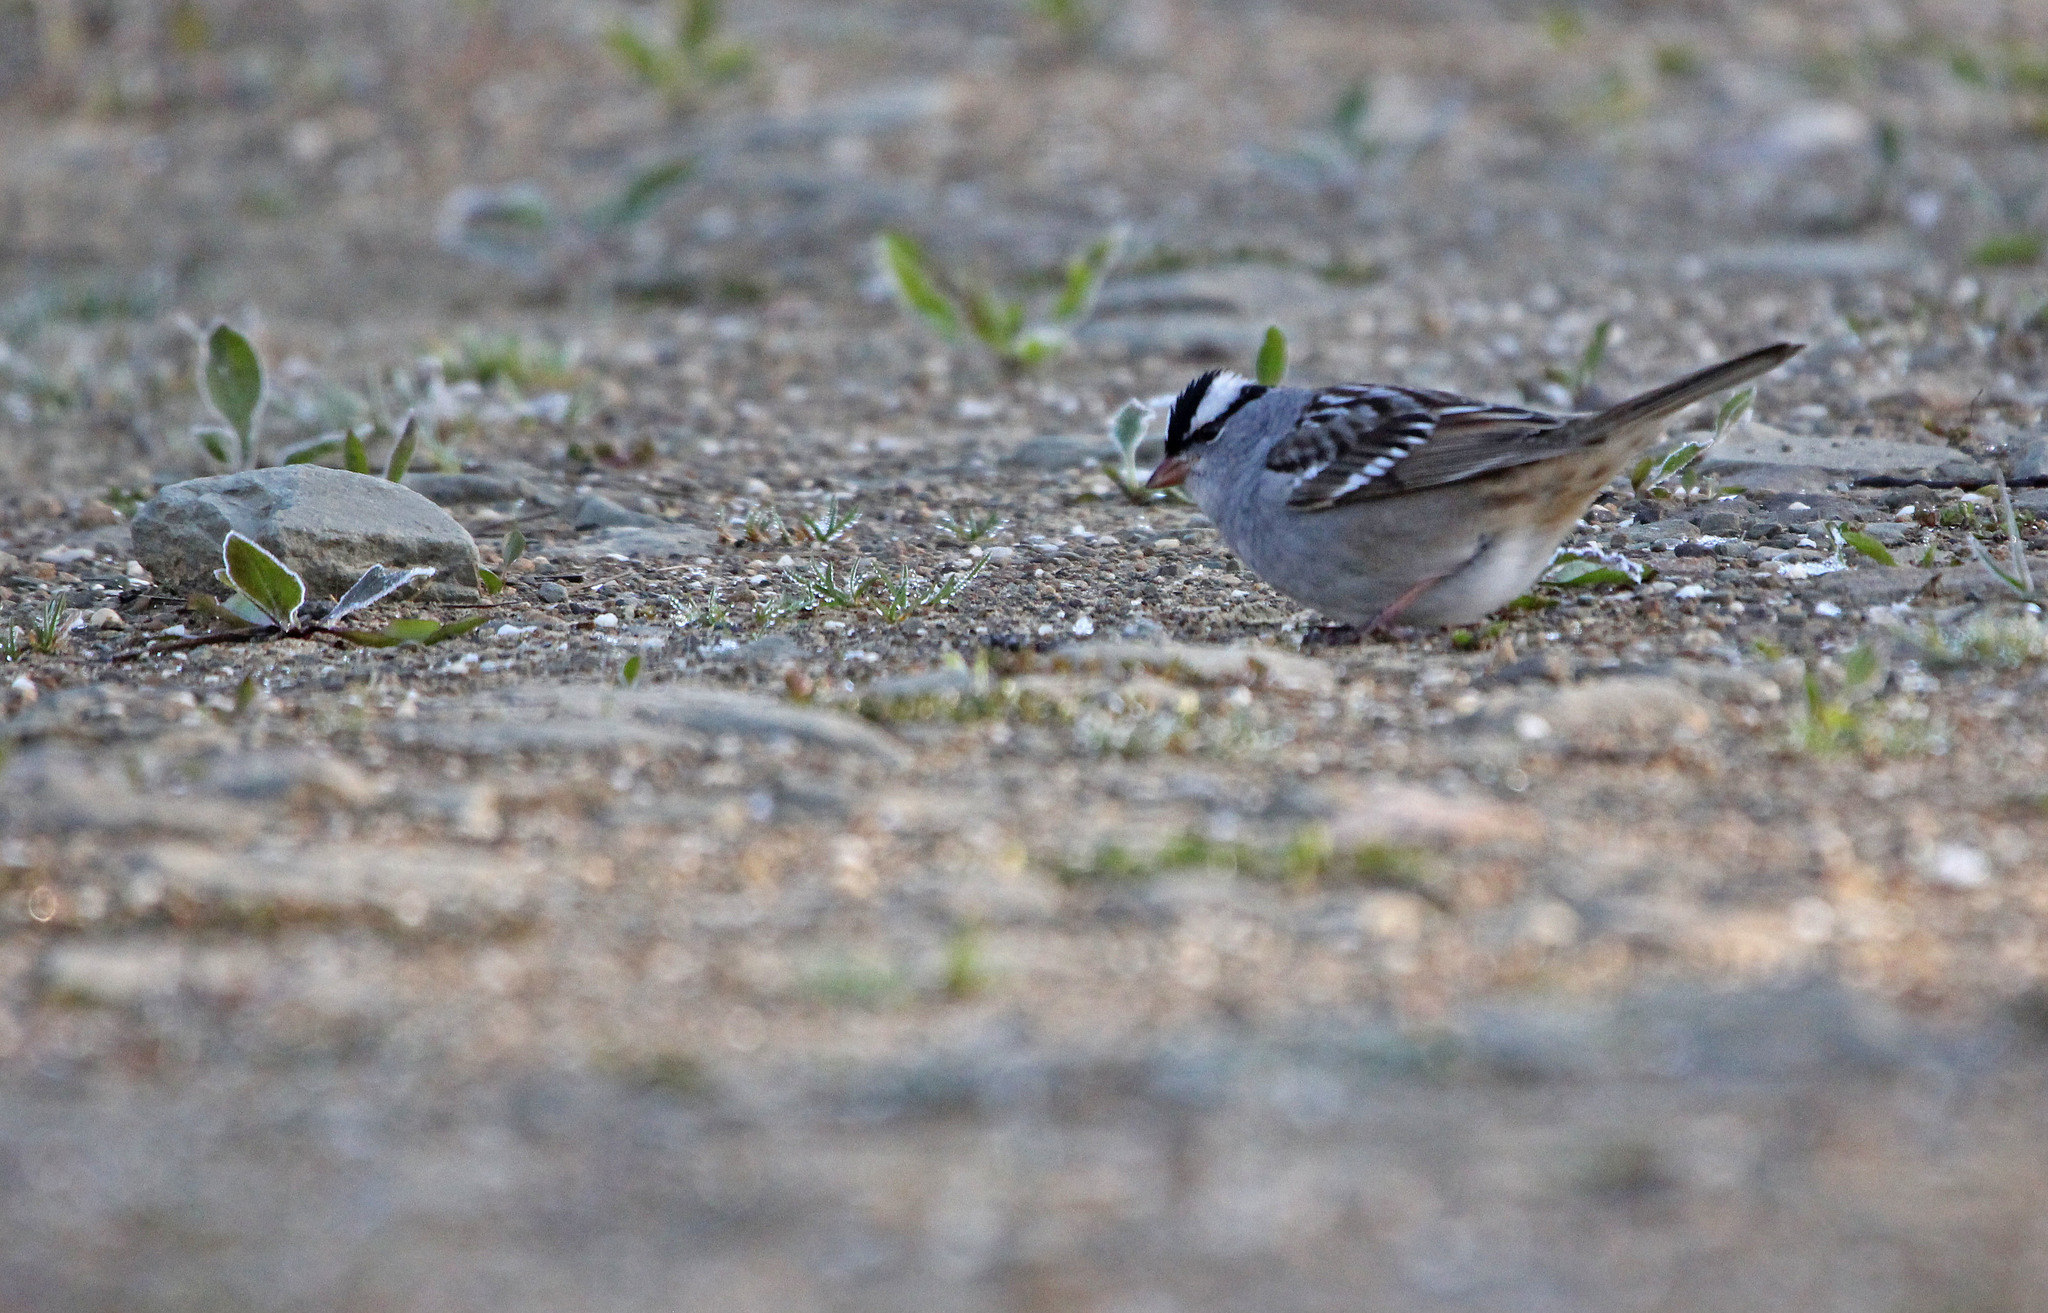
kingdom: Animalia
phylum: Chordata
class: Aves
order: Passeriformes
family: Passerellidae
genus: Zonotrichia
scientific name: Zonotrichia leucophrys
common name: White-crowned sparrow
